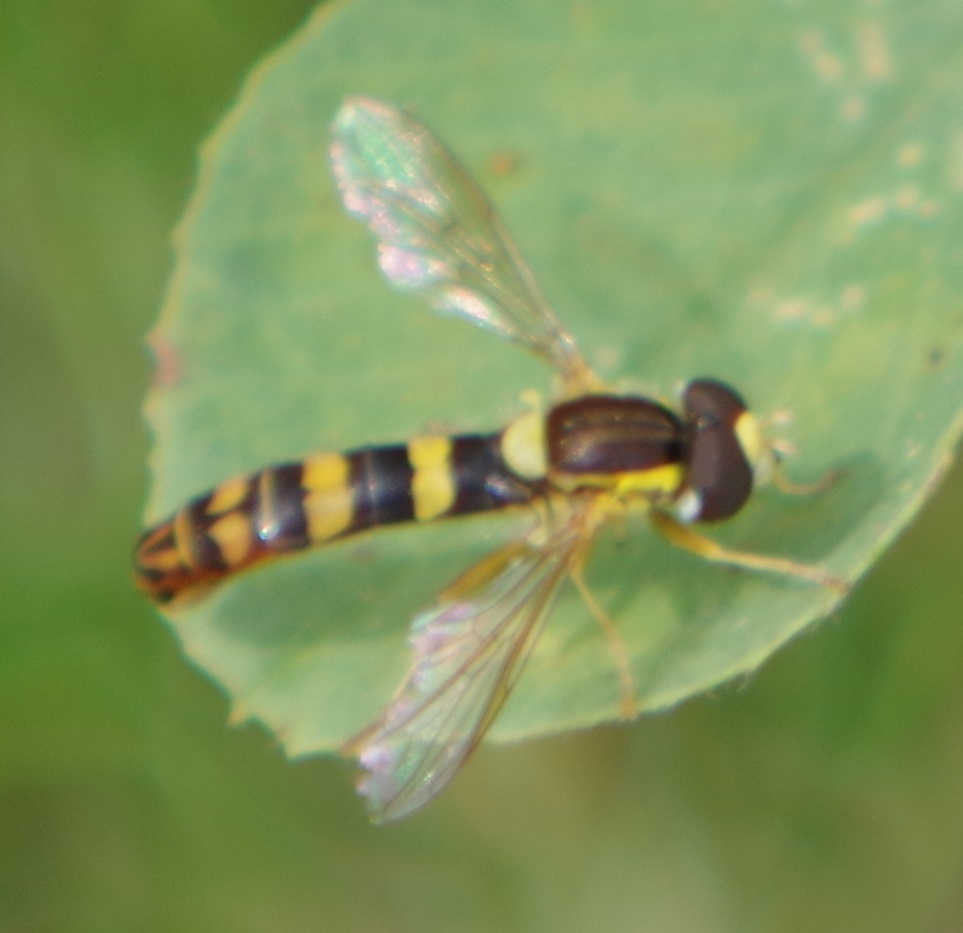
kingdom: Animalia
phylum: Arthropoda
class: Insecta
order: Diptera
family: Syrphidae
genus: Sphaerophoria
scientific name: Sphaerophoria scripta
